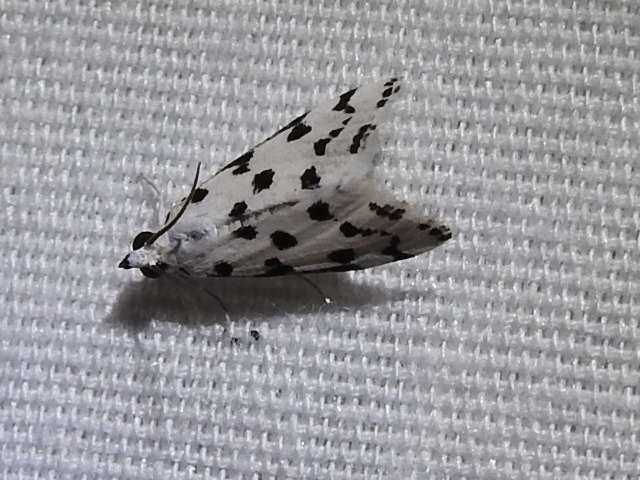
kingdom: Animalia
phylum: Arthropoda
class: Insecta
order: Lepidoptera
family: Crambidae
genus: Eustixia
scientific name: Eustixia pupula
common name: American cabbage pearl
